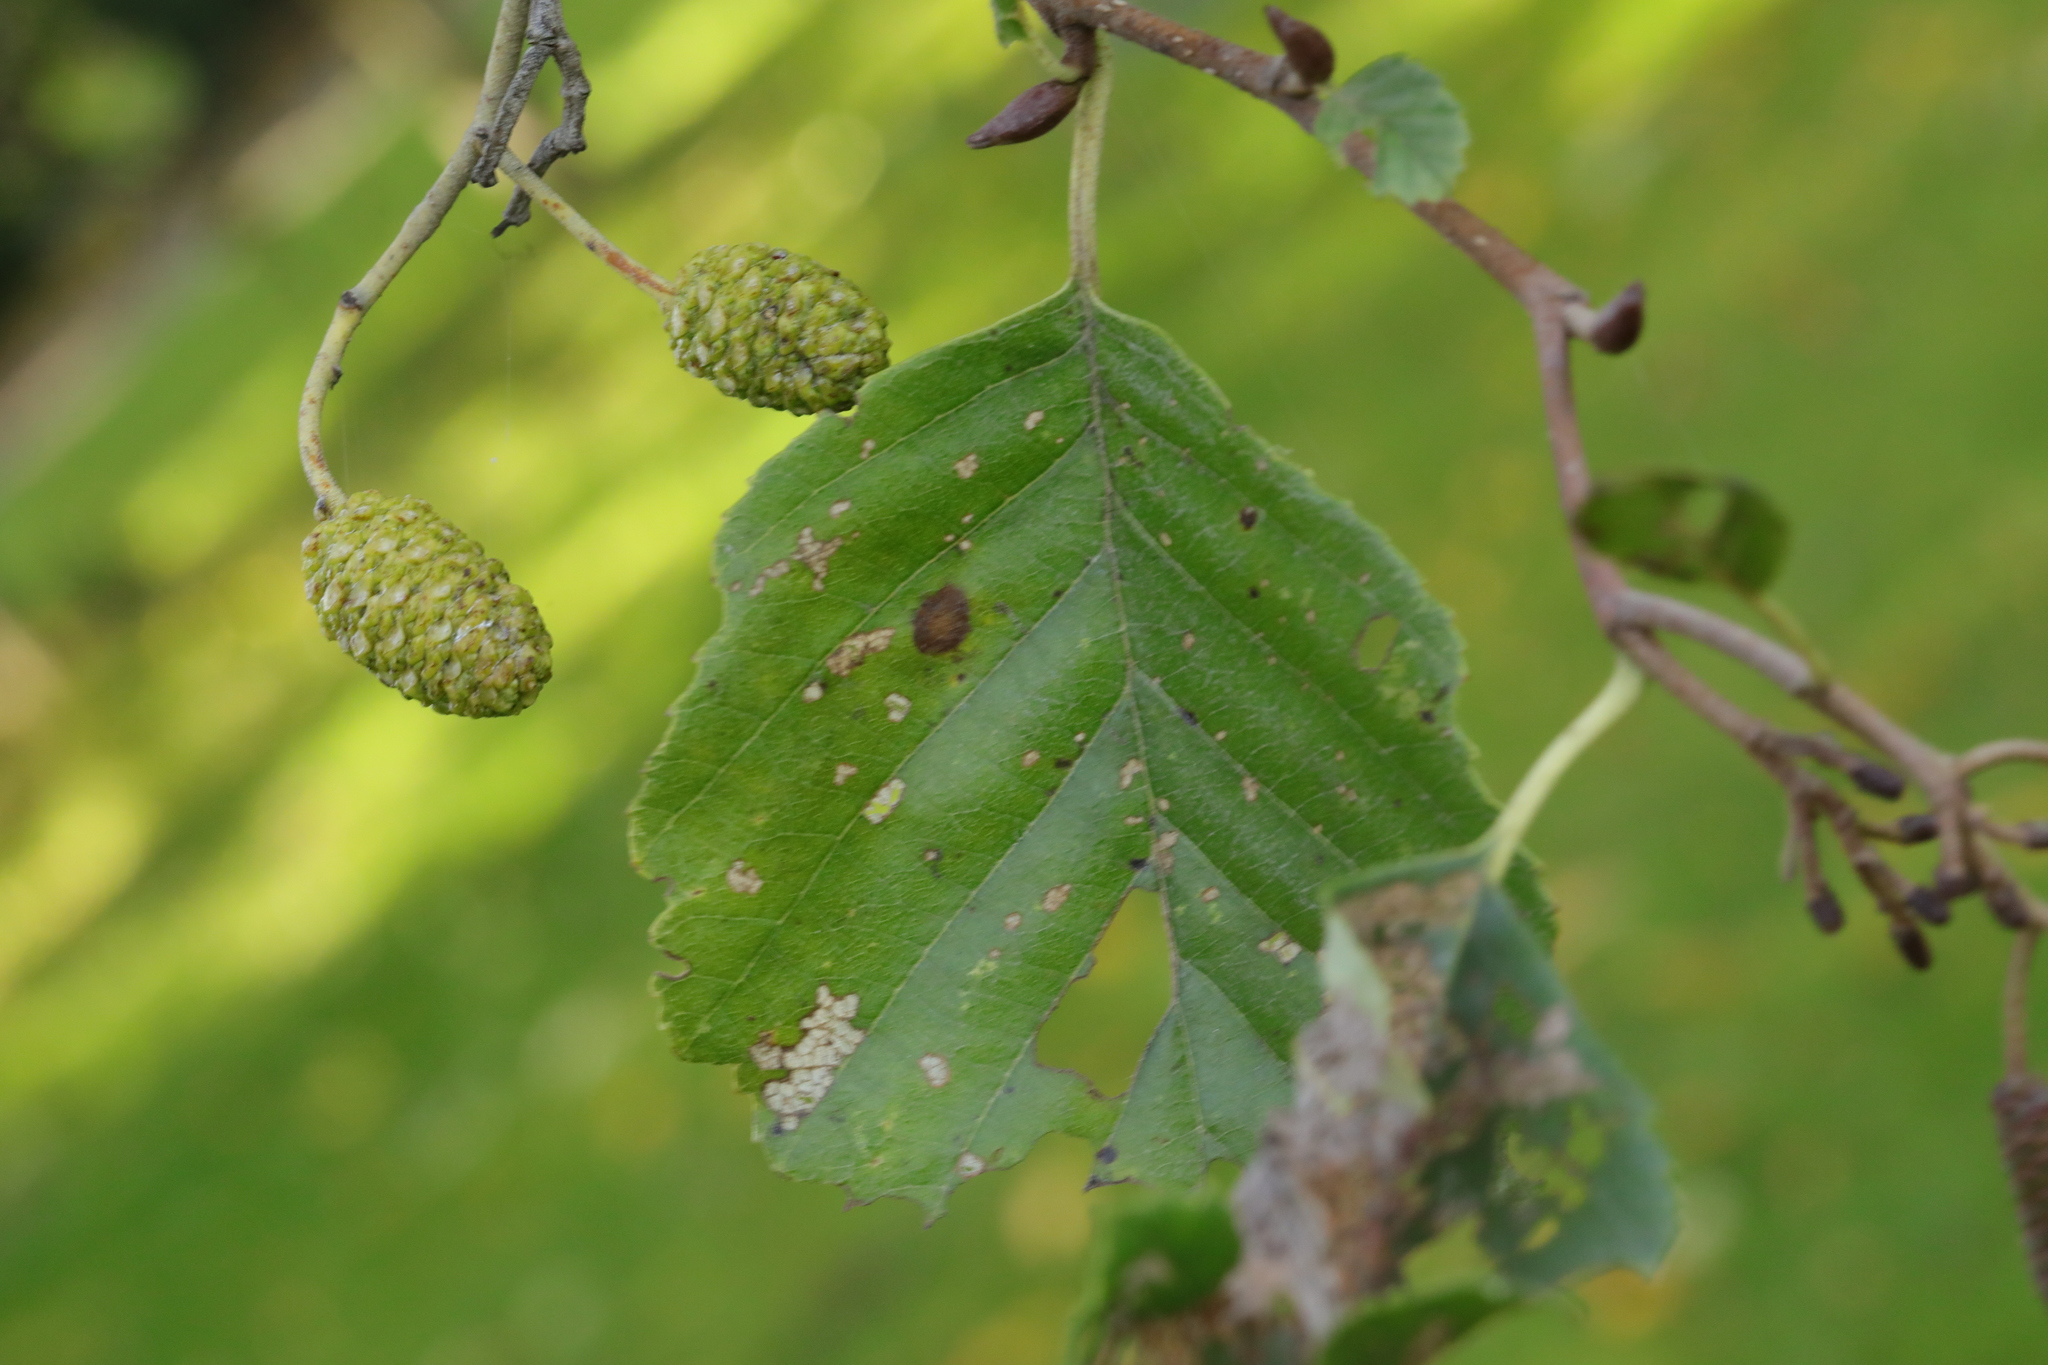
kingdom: Plantae
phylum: Tracheophyta
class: Magnoliopsida
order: Fagales
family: Betulaceae
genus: Alnus
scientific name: Alnus glutinosa
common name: Black alder
